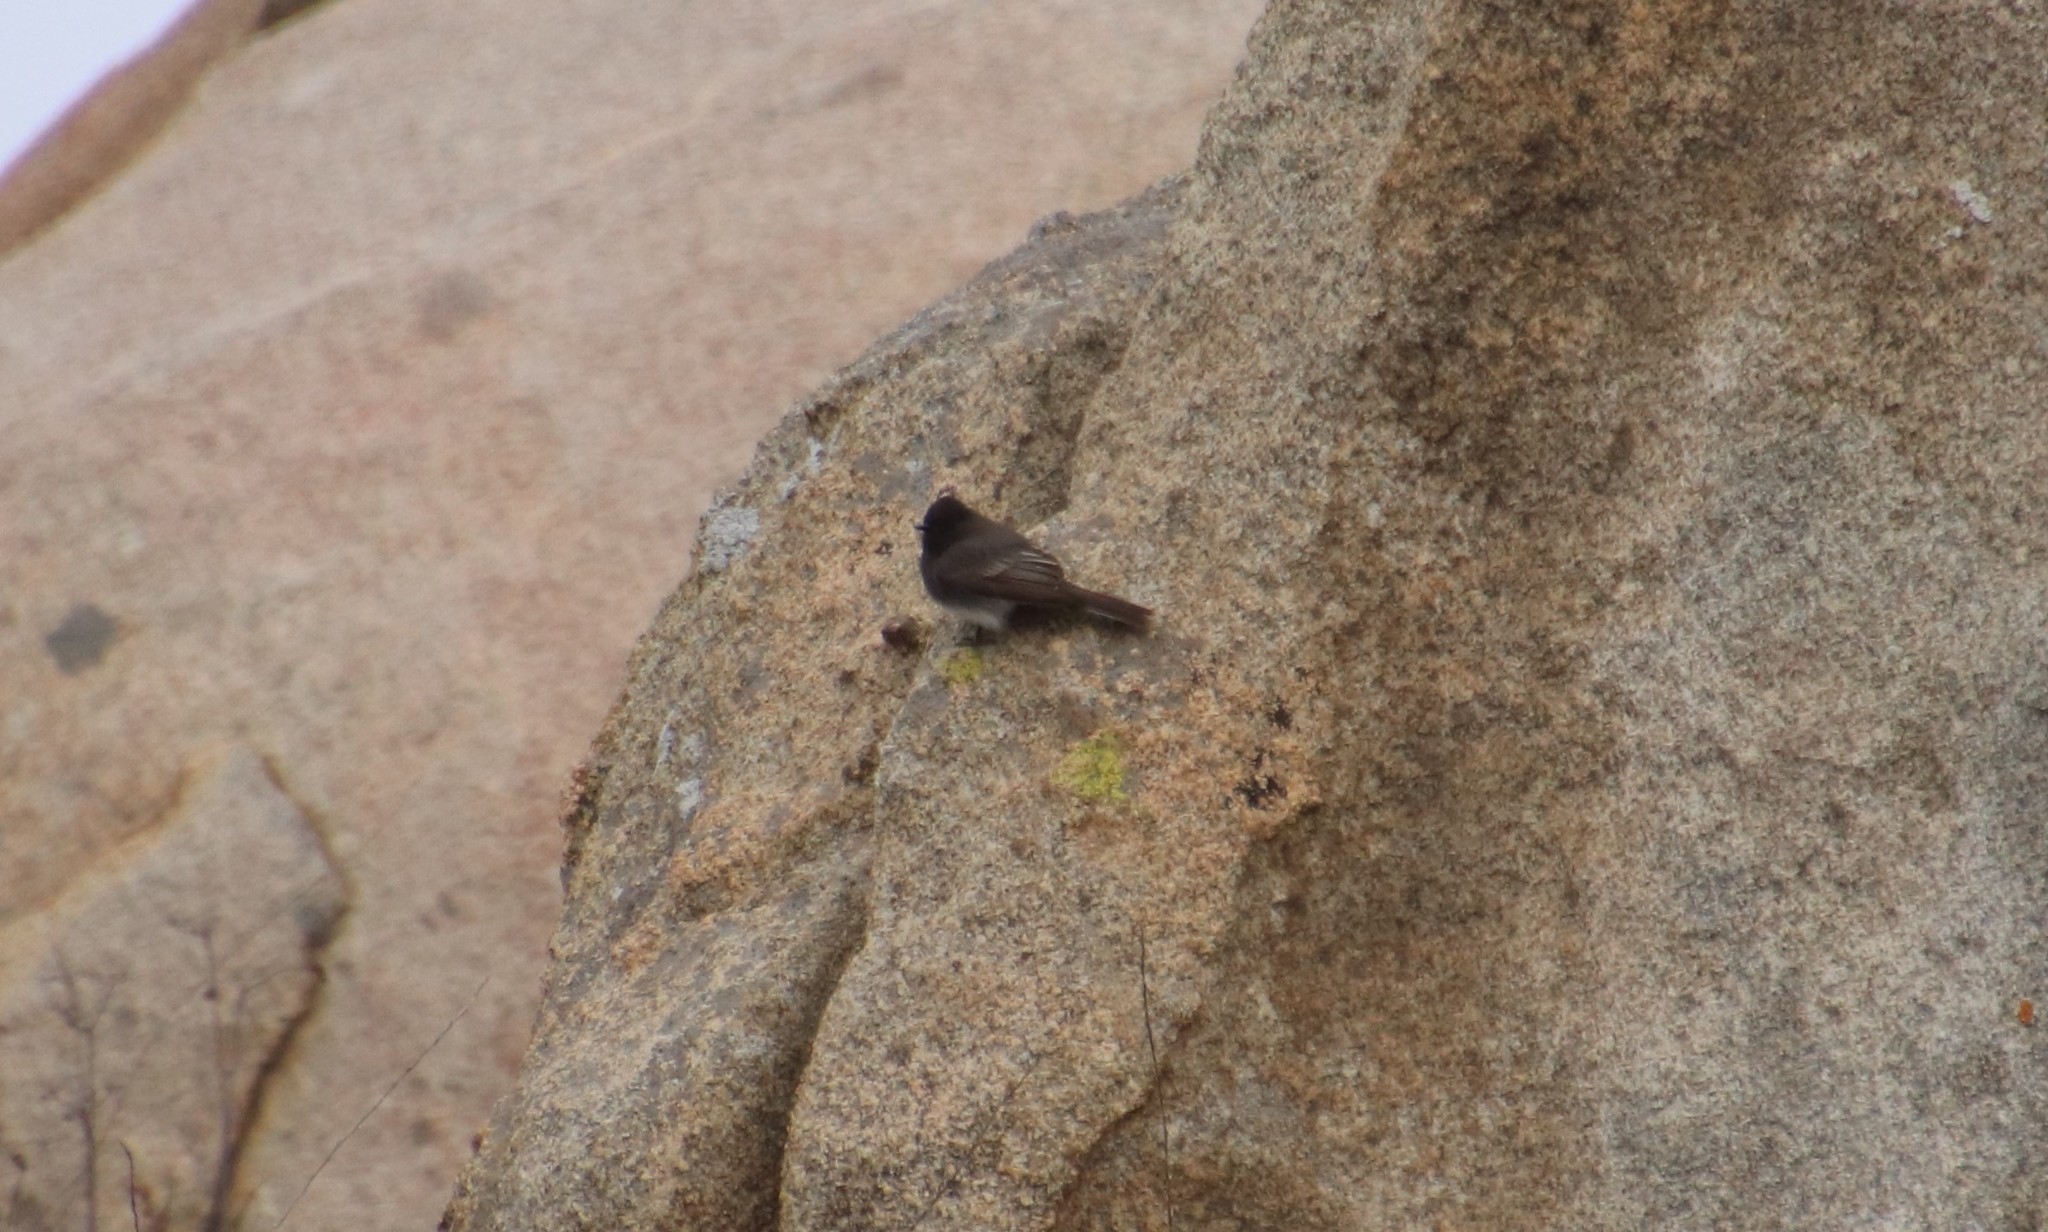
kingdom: Animalia
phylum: Chordata
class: Aves
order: Passeriformes
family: Tyrannidae
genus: Sayornis
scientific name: Sayornis nigricans
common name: Black phoebe
